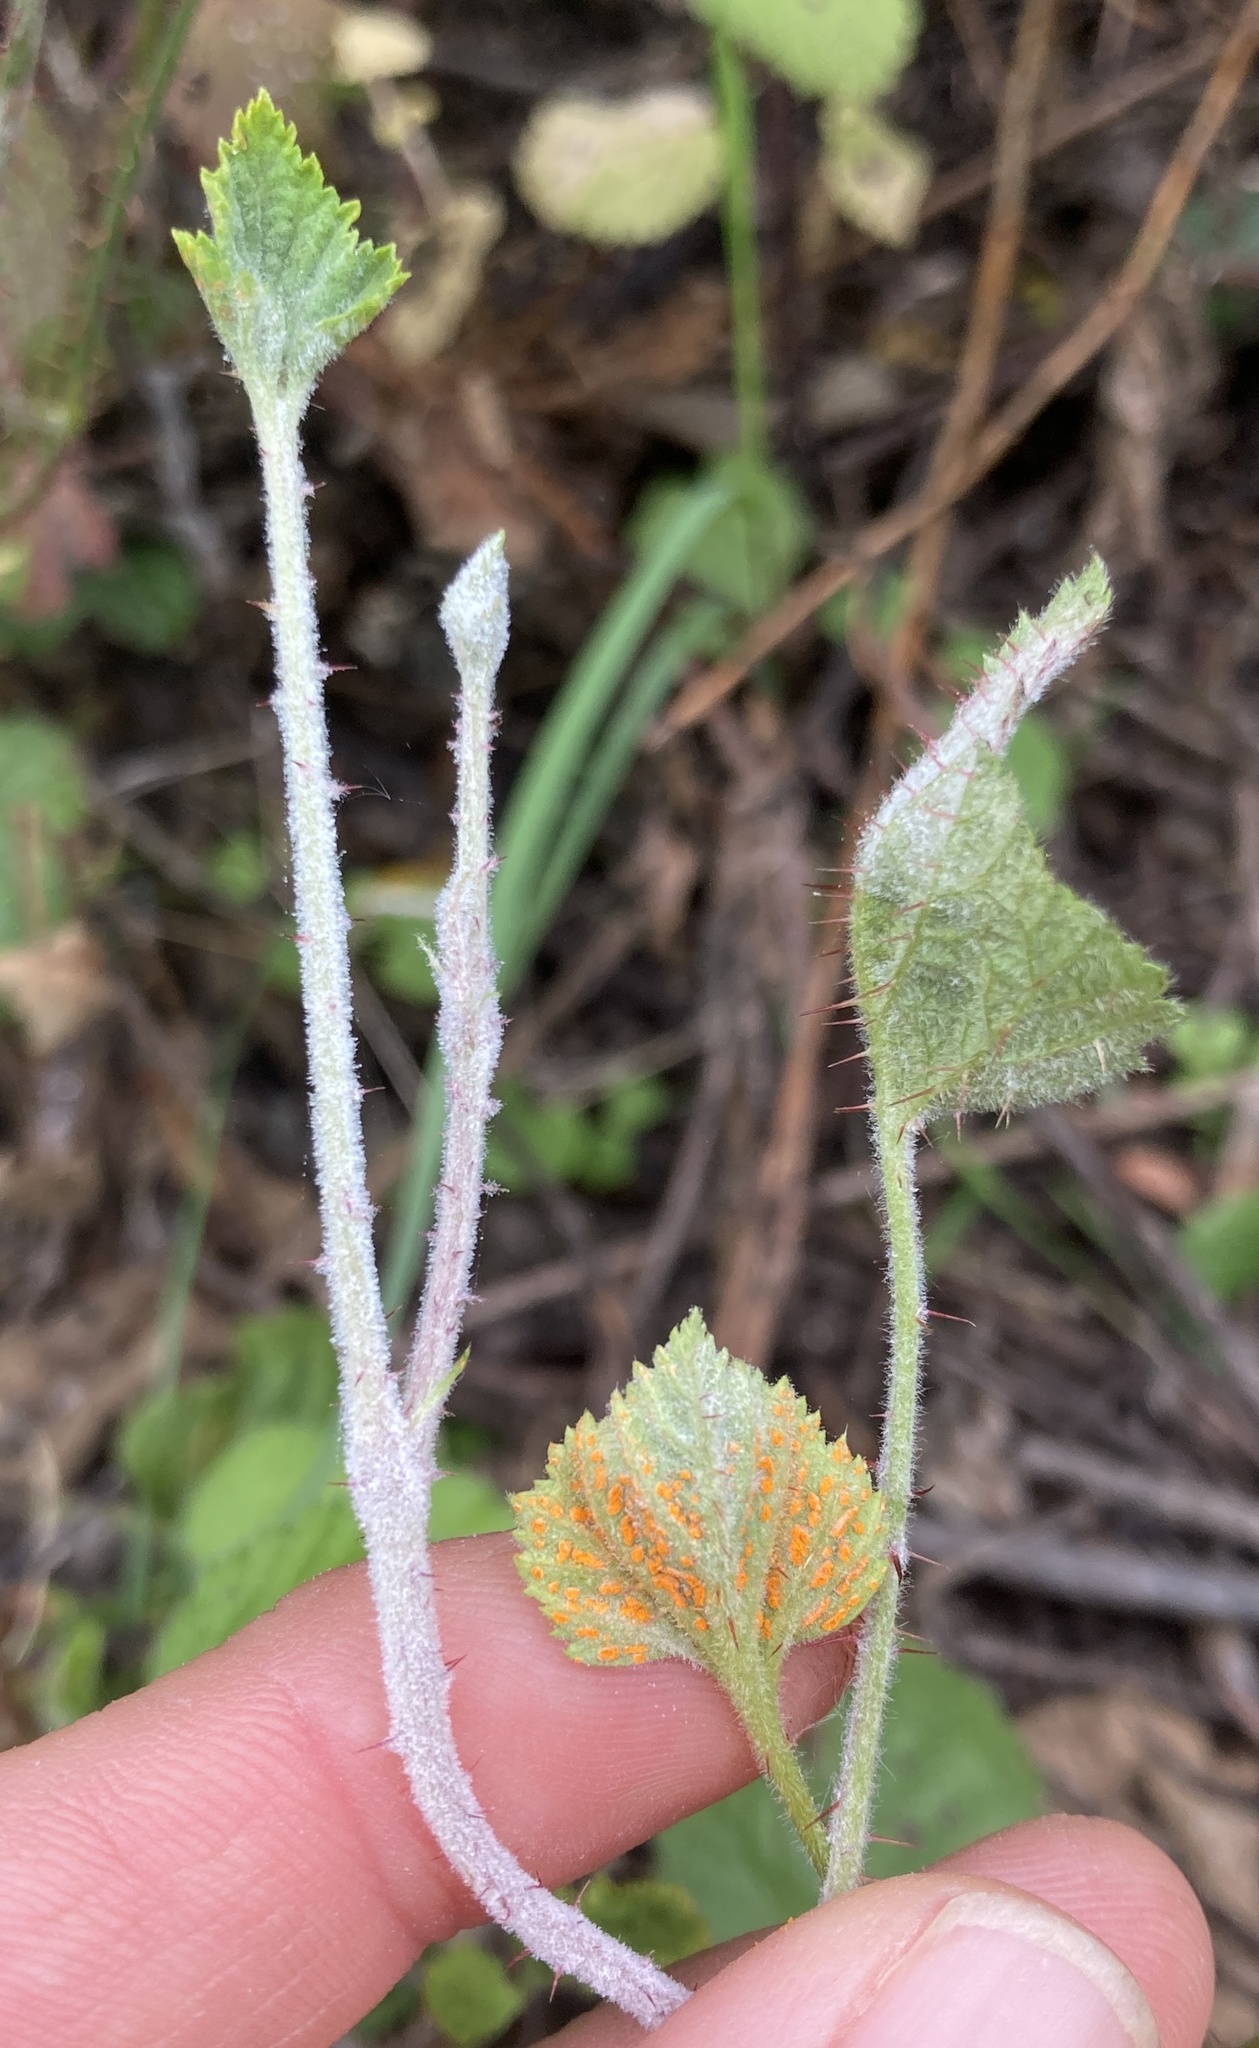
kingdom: Fungi
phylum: Basidiomycota
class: Pucciniomycetes
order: Pucciniales
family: Phragmidiaceae
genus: Arthuriomyces
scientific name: Arthuriomyces peckianus
